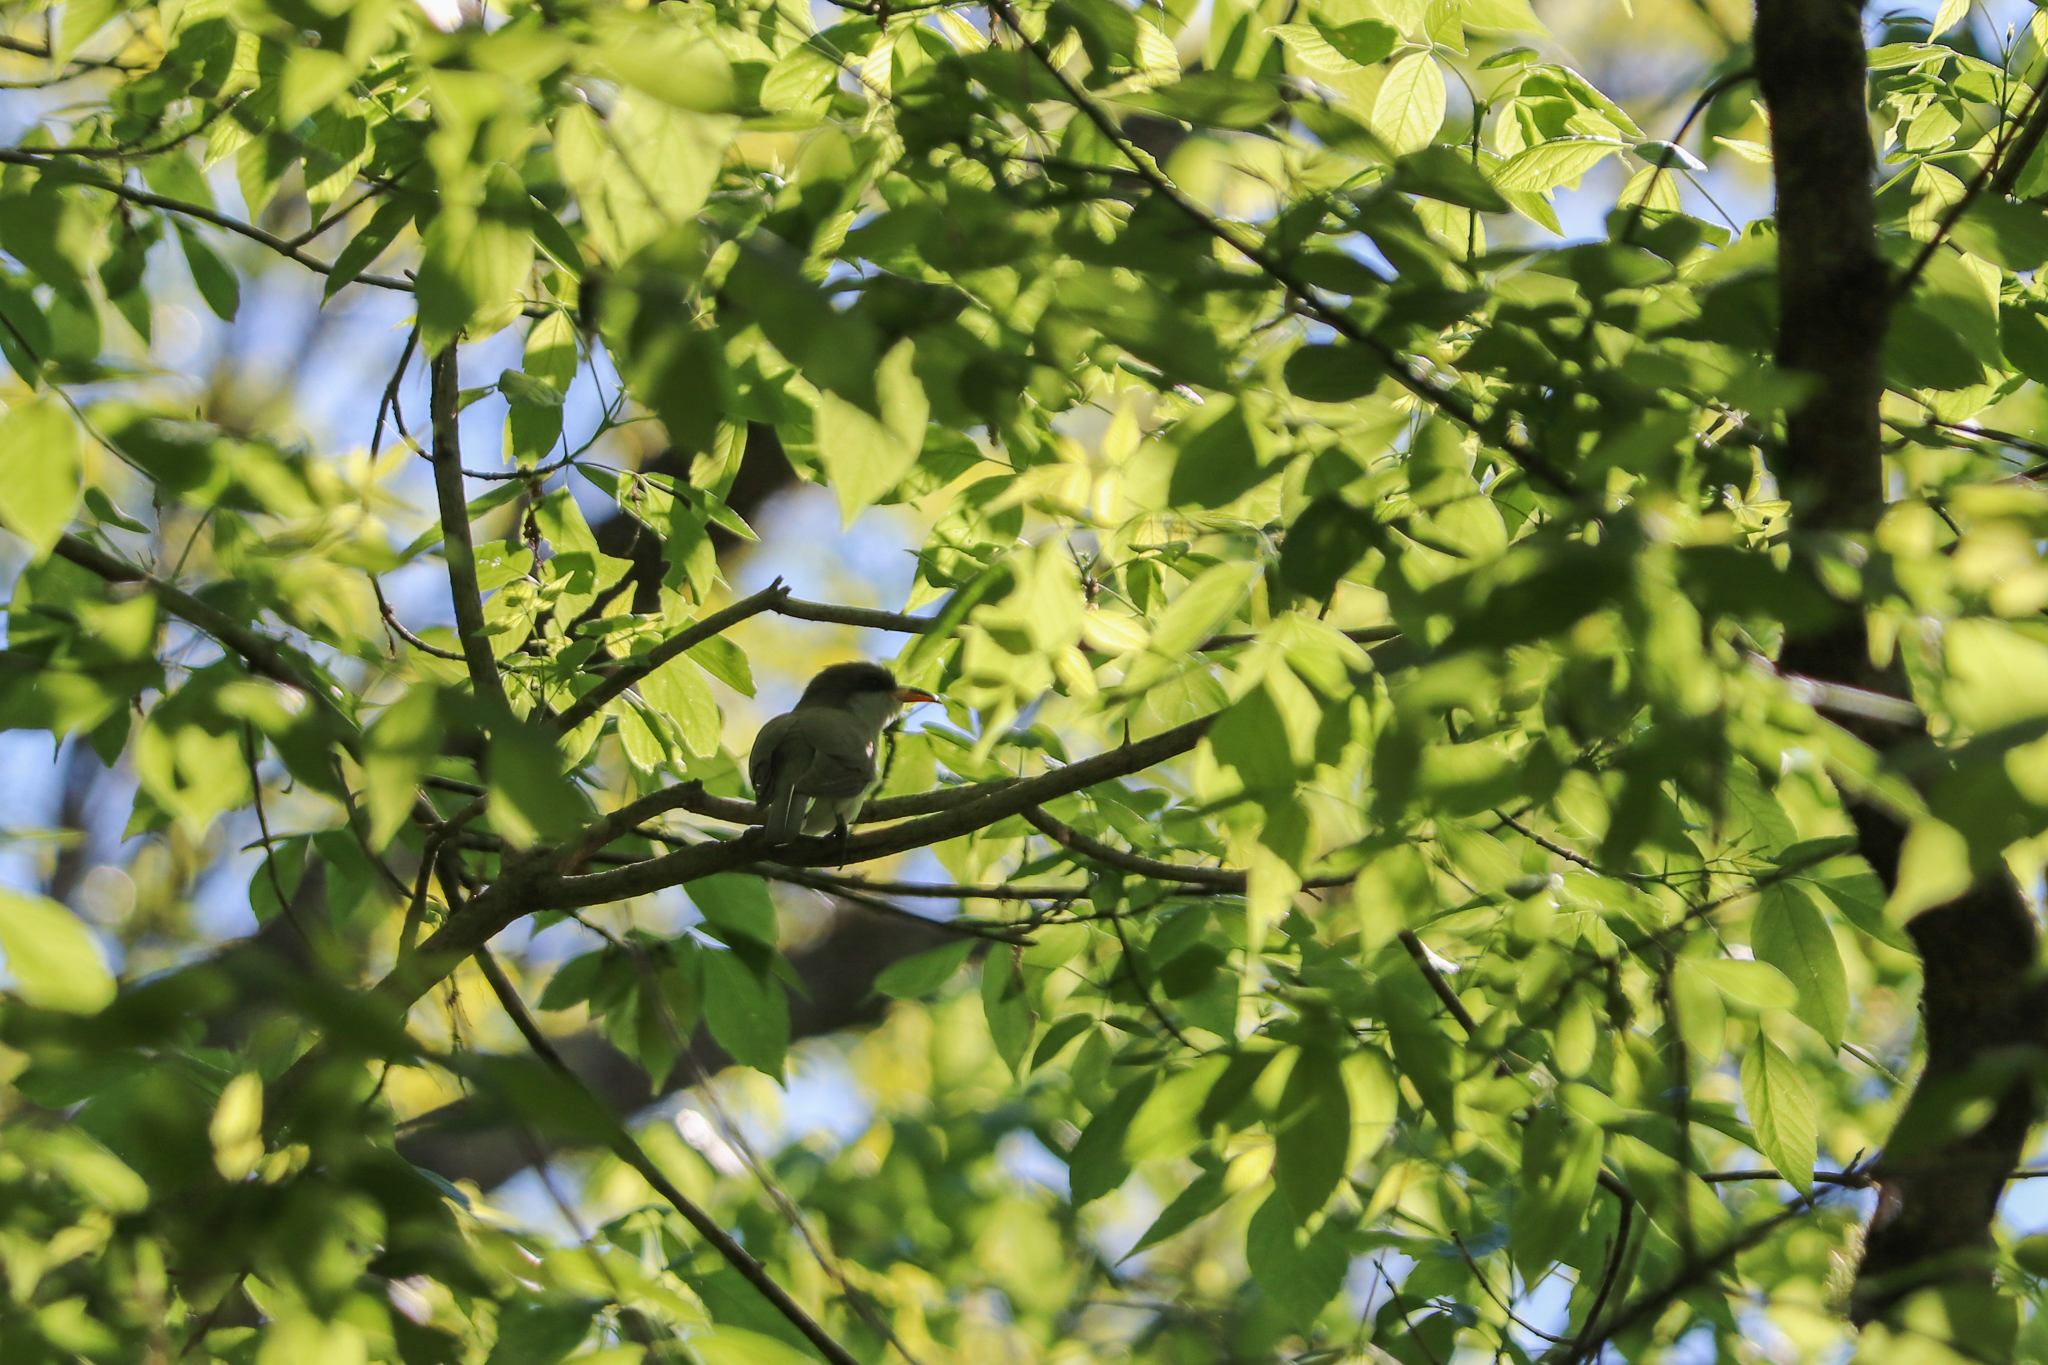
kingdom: Animalia
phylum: Chordata
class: Aves
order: Cuculiformes
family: Cuculidae
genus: Coccyzus
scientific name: Coccyzus americanus
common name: Yellow-billed cuckoo
